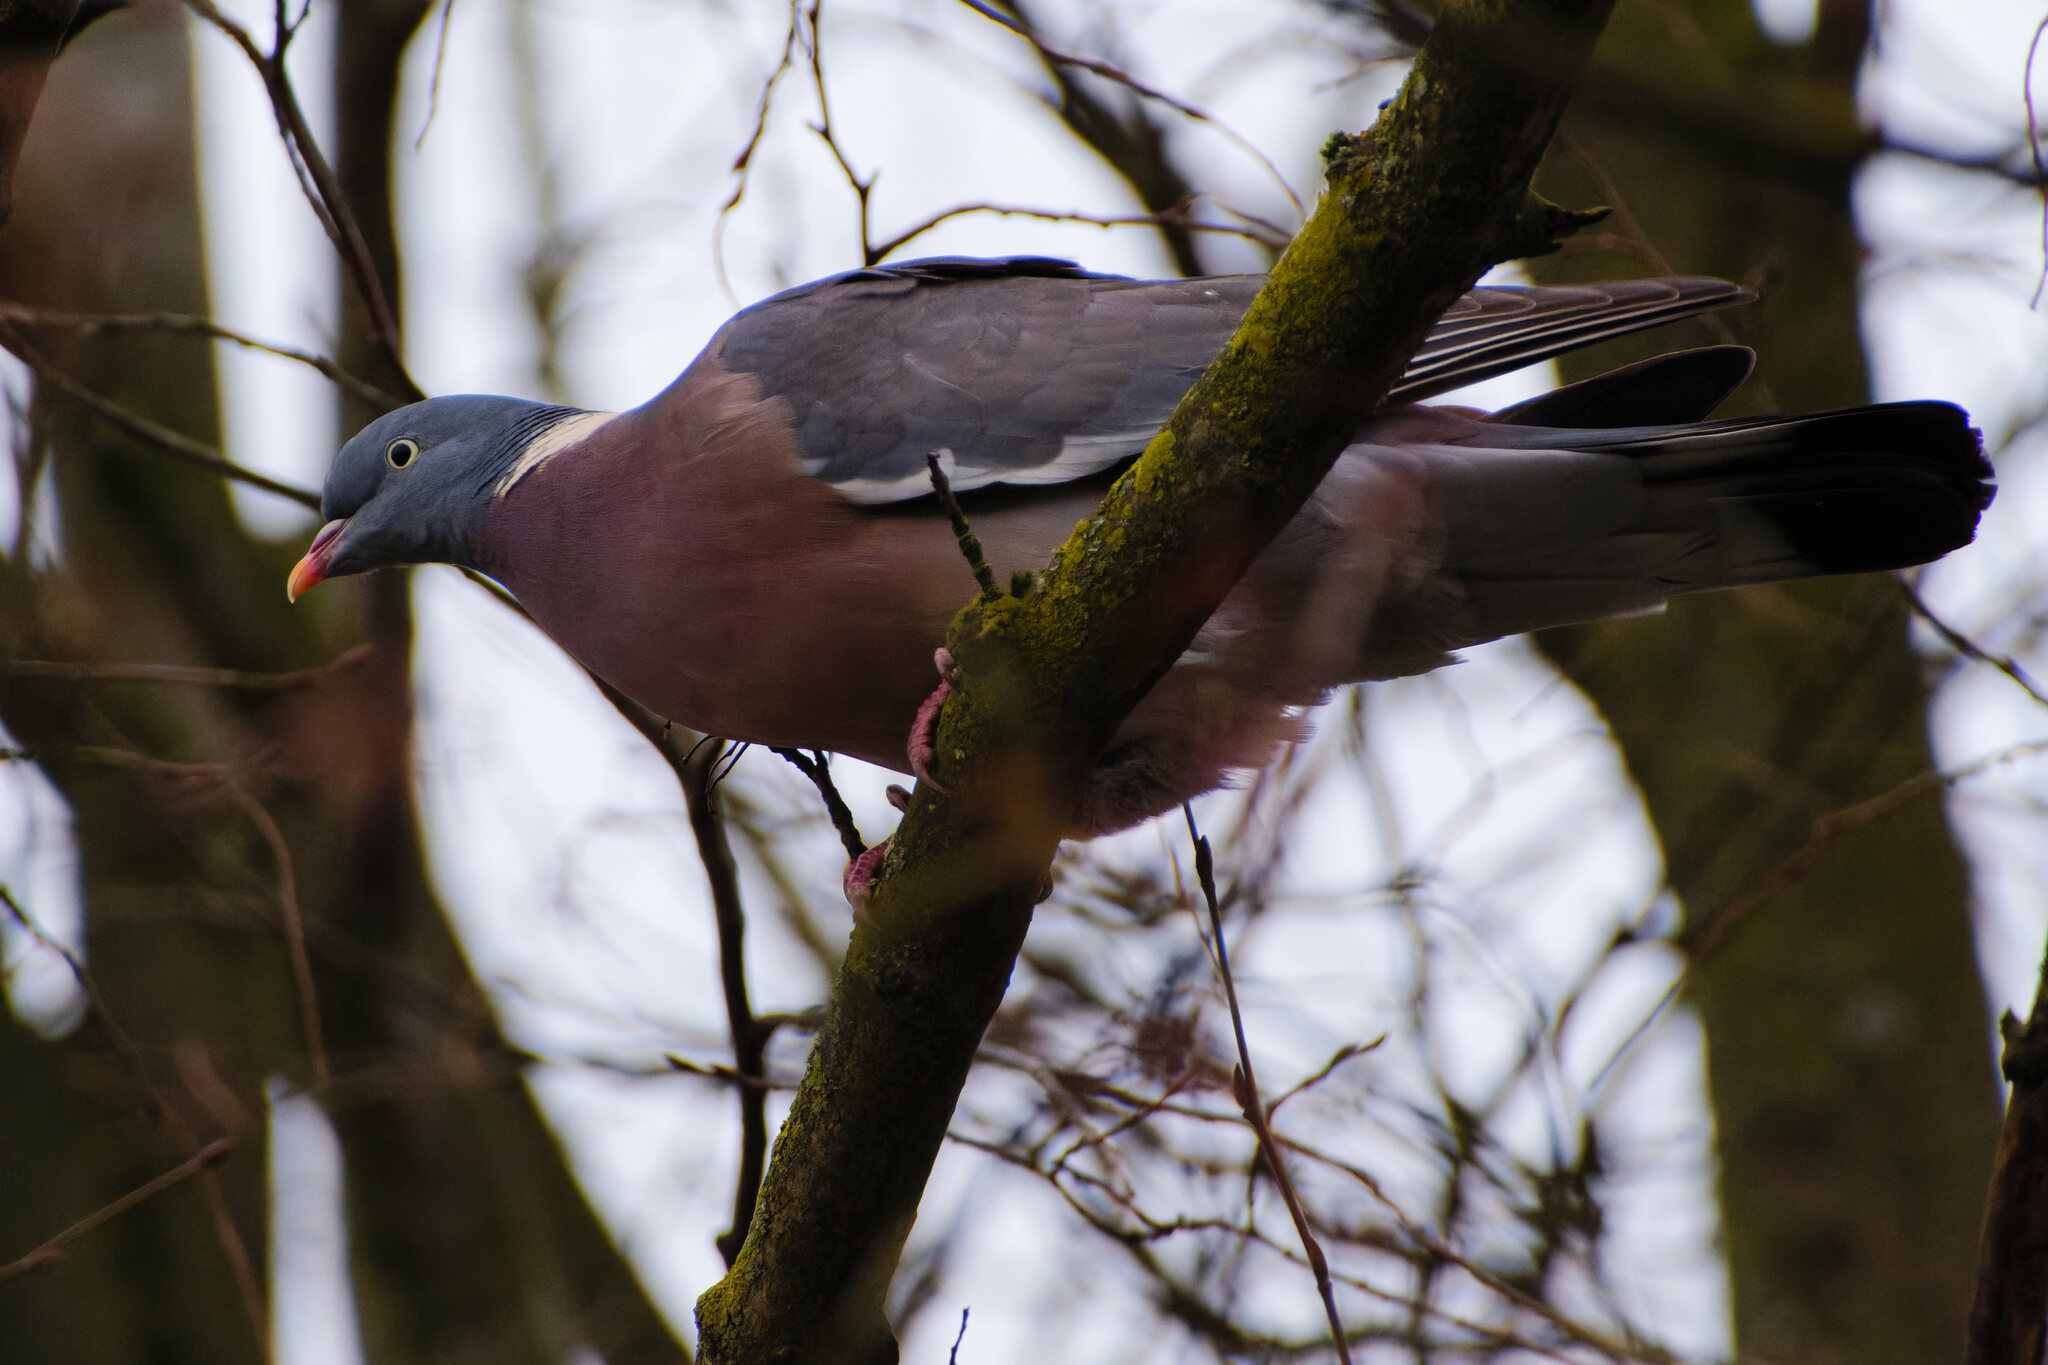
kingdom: Animalia
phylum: Chordata
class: Aves
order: Columbiformes
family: Columbidae
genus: Columba
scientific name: Columba palumbus
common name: Common wood pigeon
